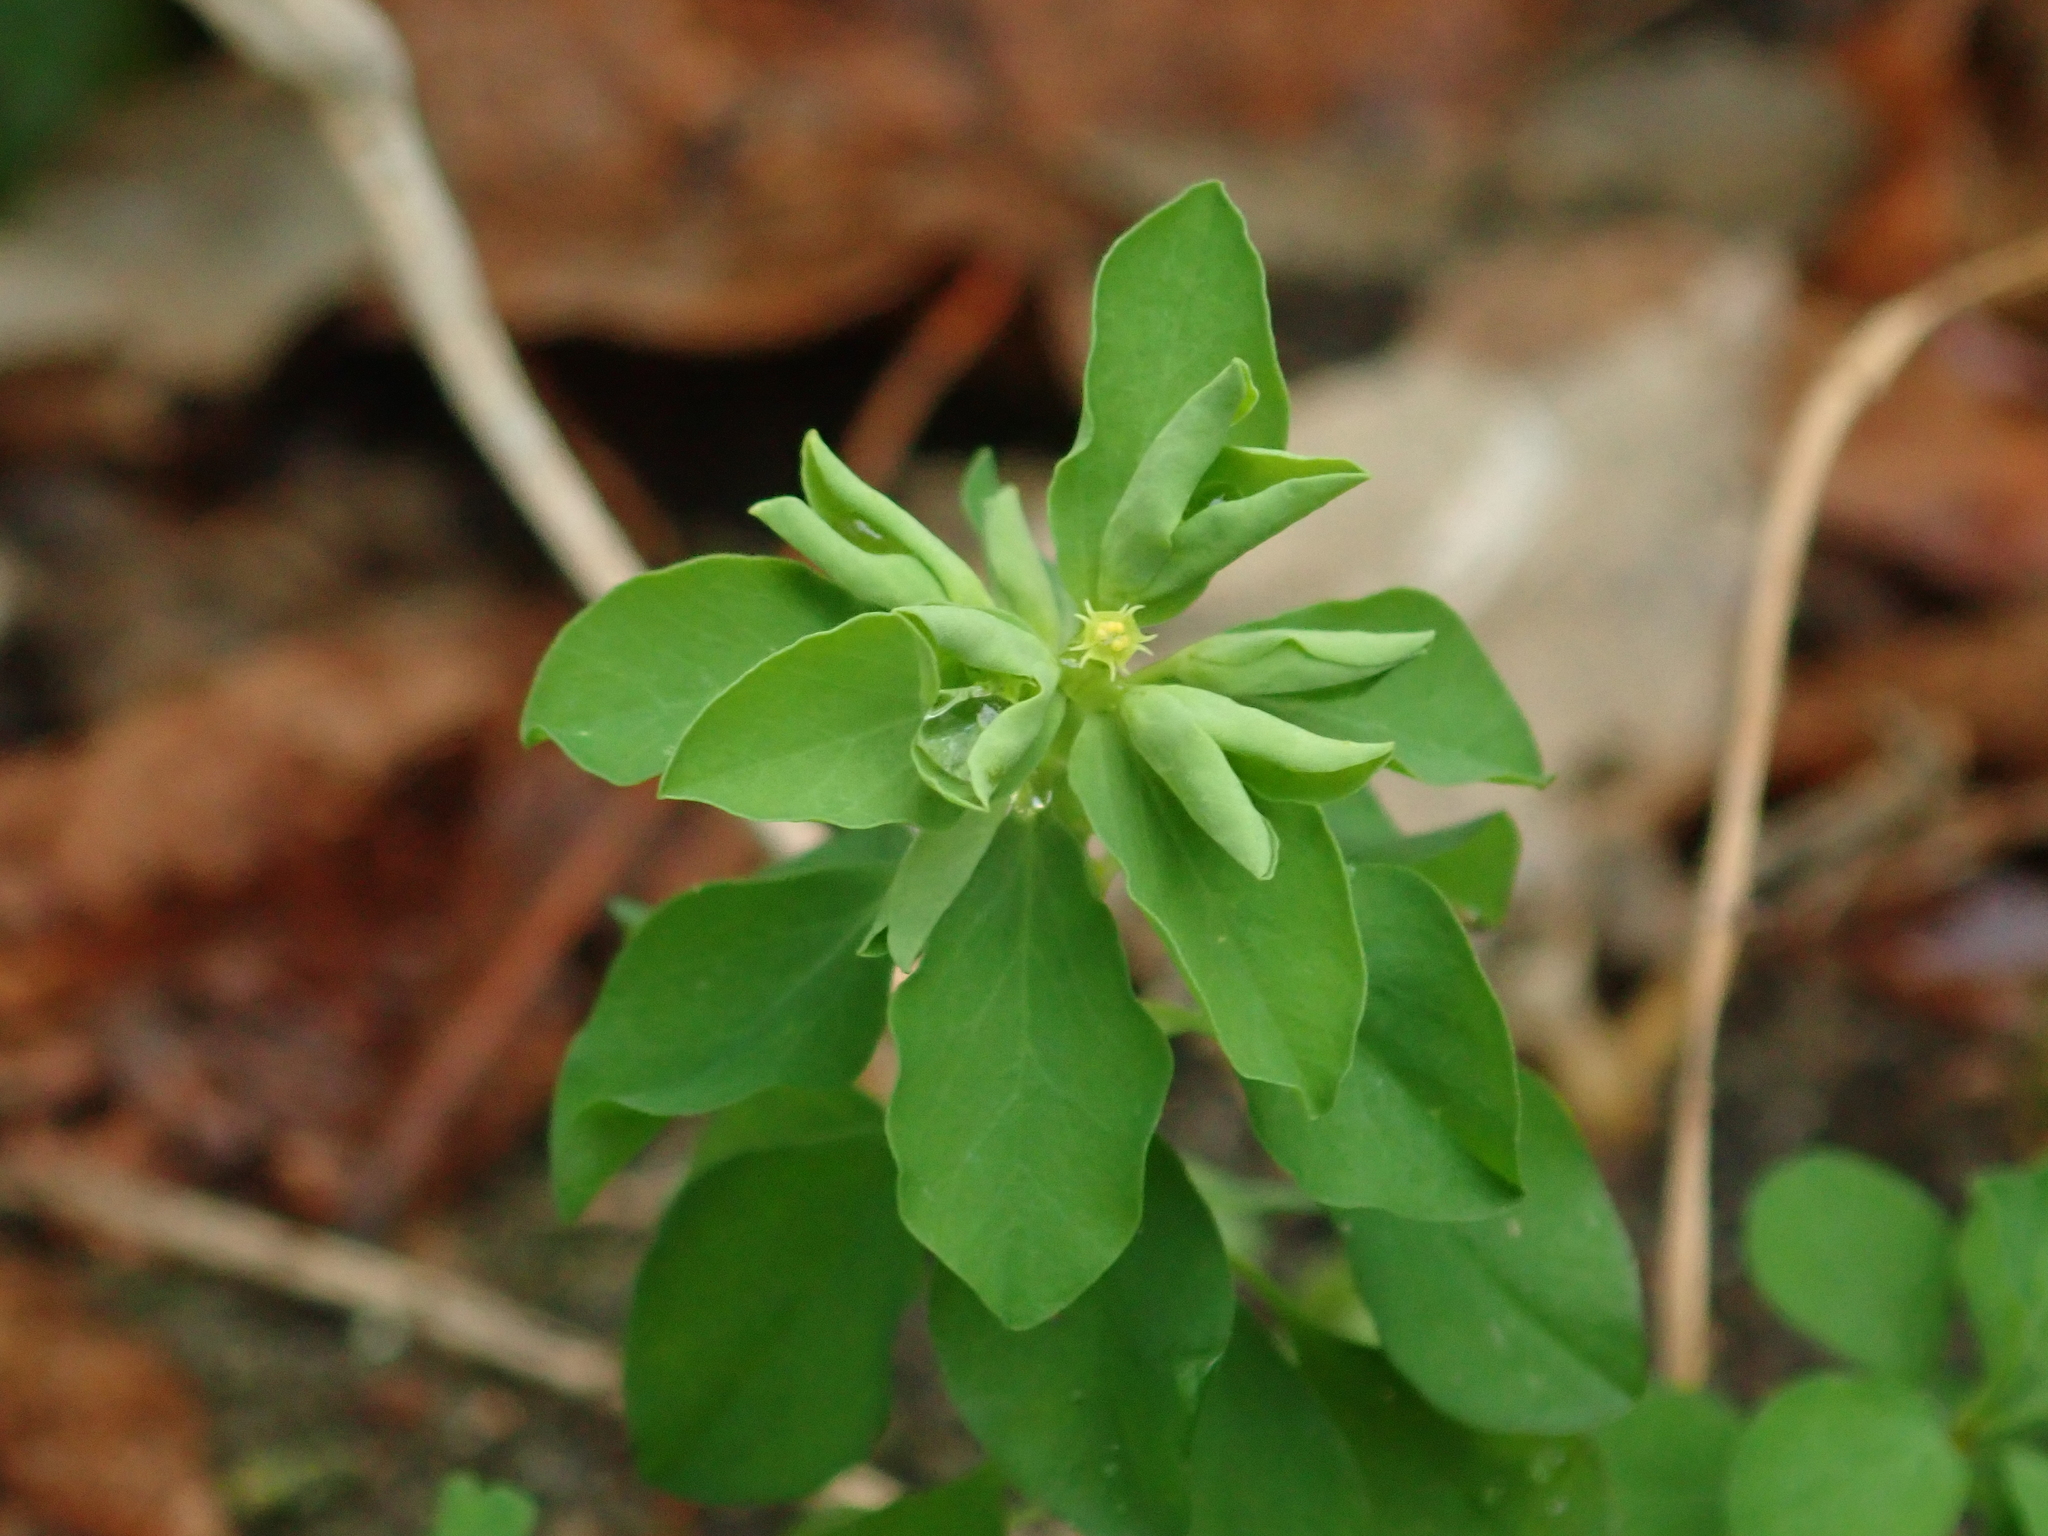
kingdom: Plantae
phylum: Tracheophyta
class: Magnoliopsida
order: Malpighiales
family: Euphorbiaceae
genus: Euphorbia
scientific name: Euphorbia peplus
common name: Petty spurge
